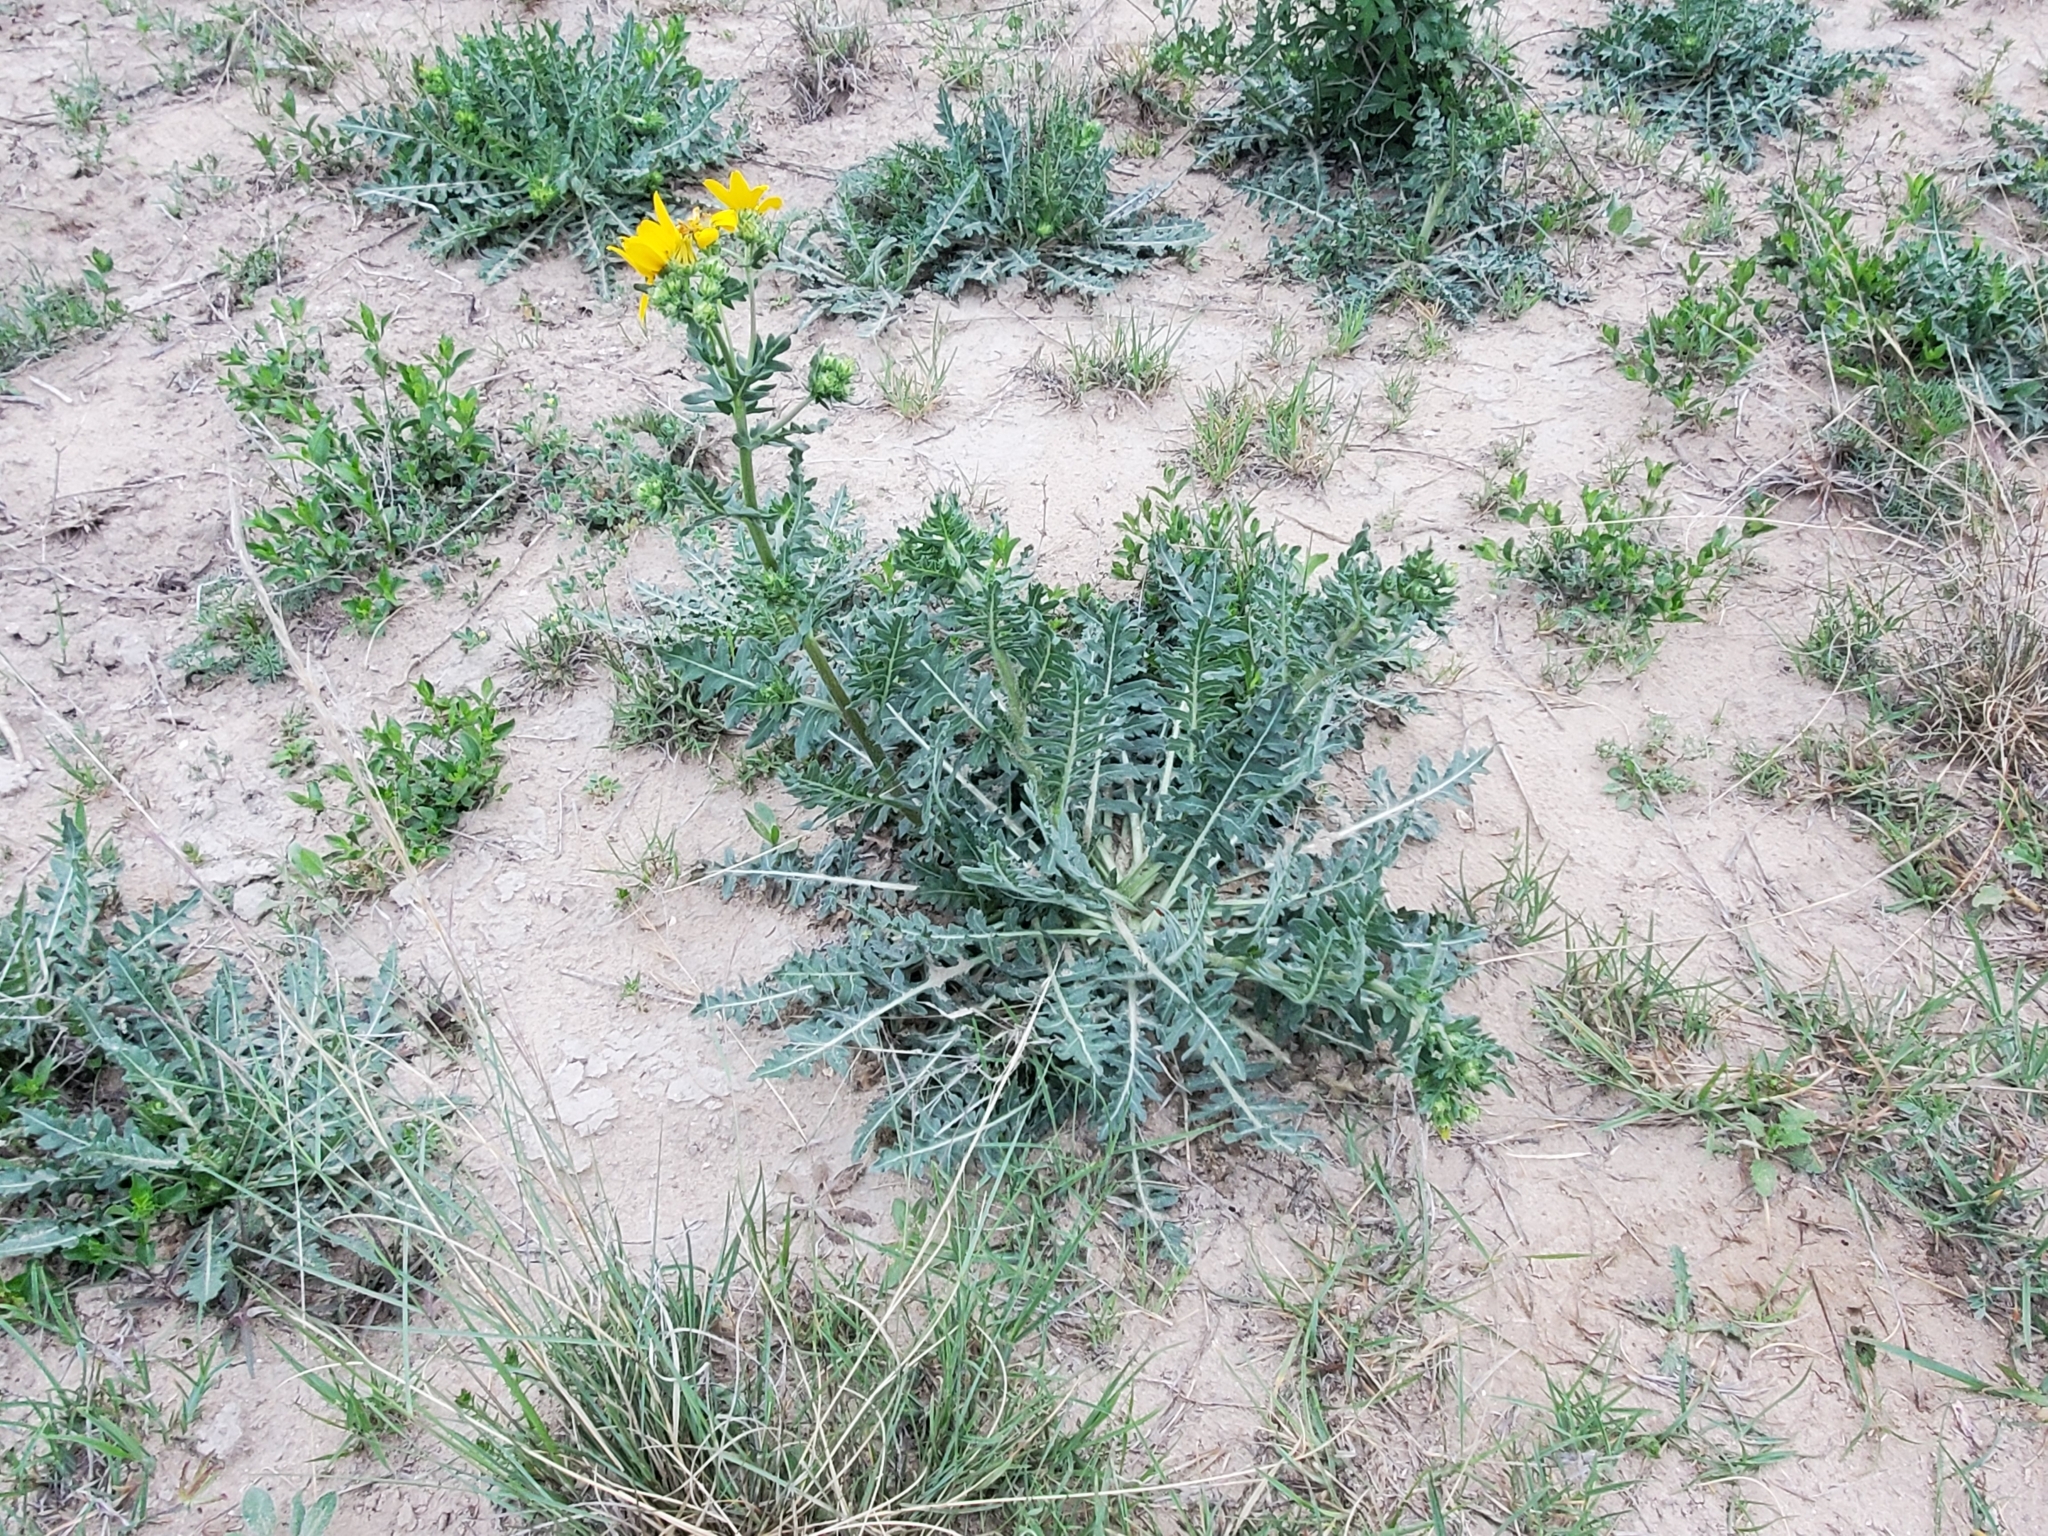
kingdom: Plantae
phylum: Tracheophyta
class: Magnoliopsida
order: Asterales
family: Asteraceae
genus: Engelmannia
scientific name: Engelmannia peristenia
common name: Engelmann's daisy
